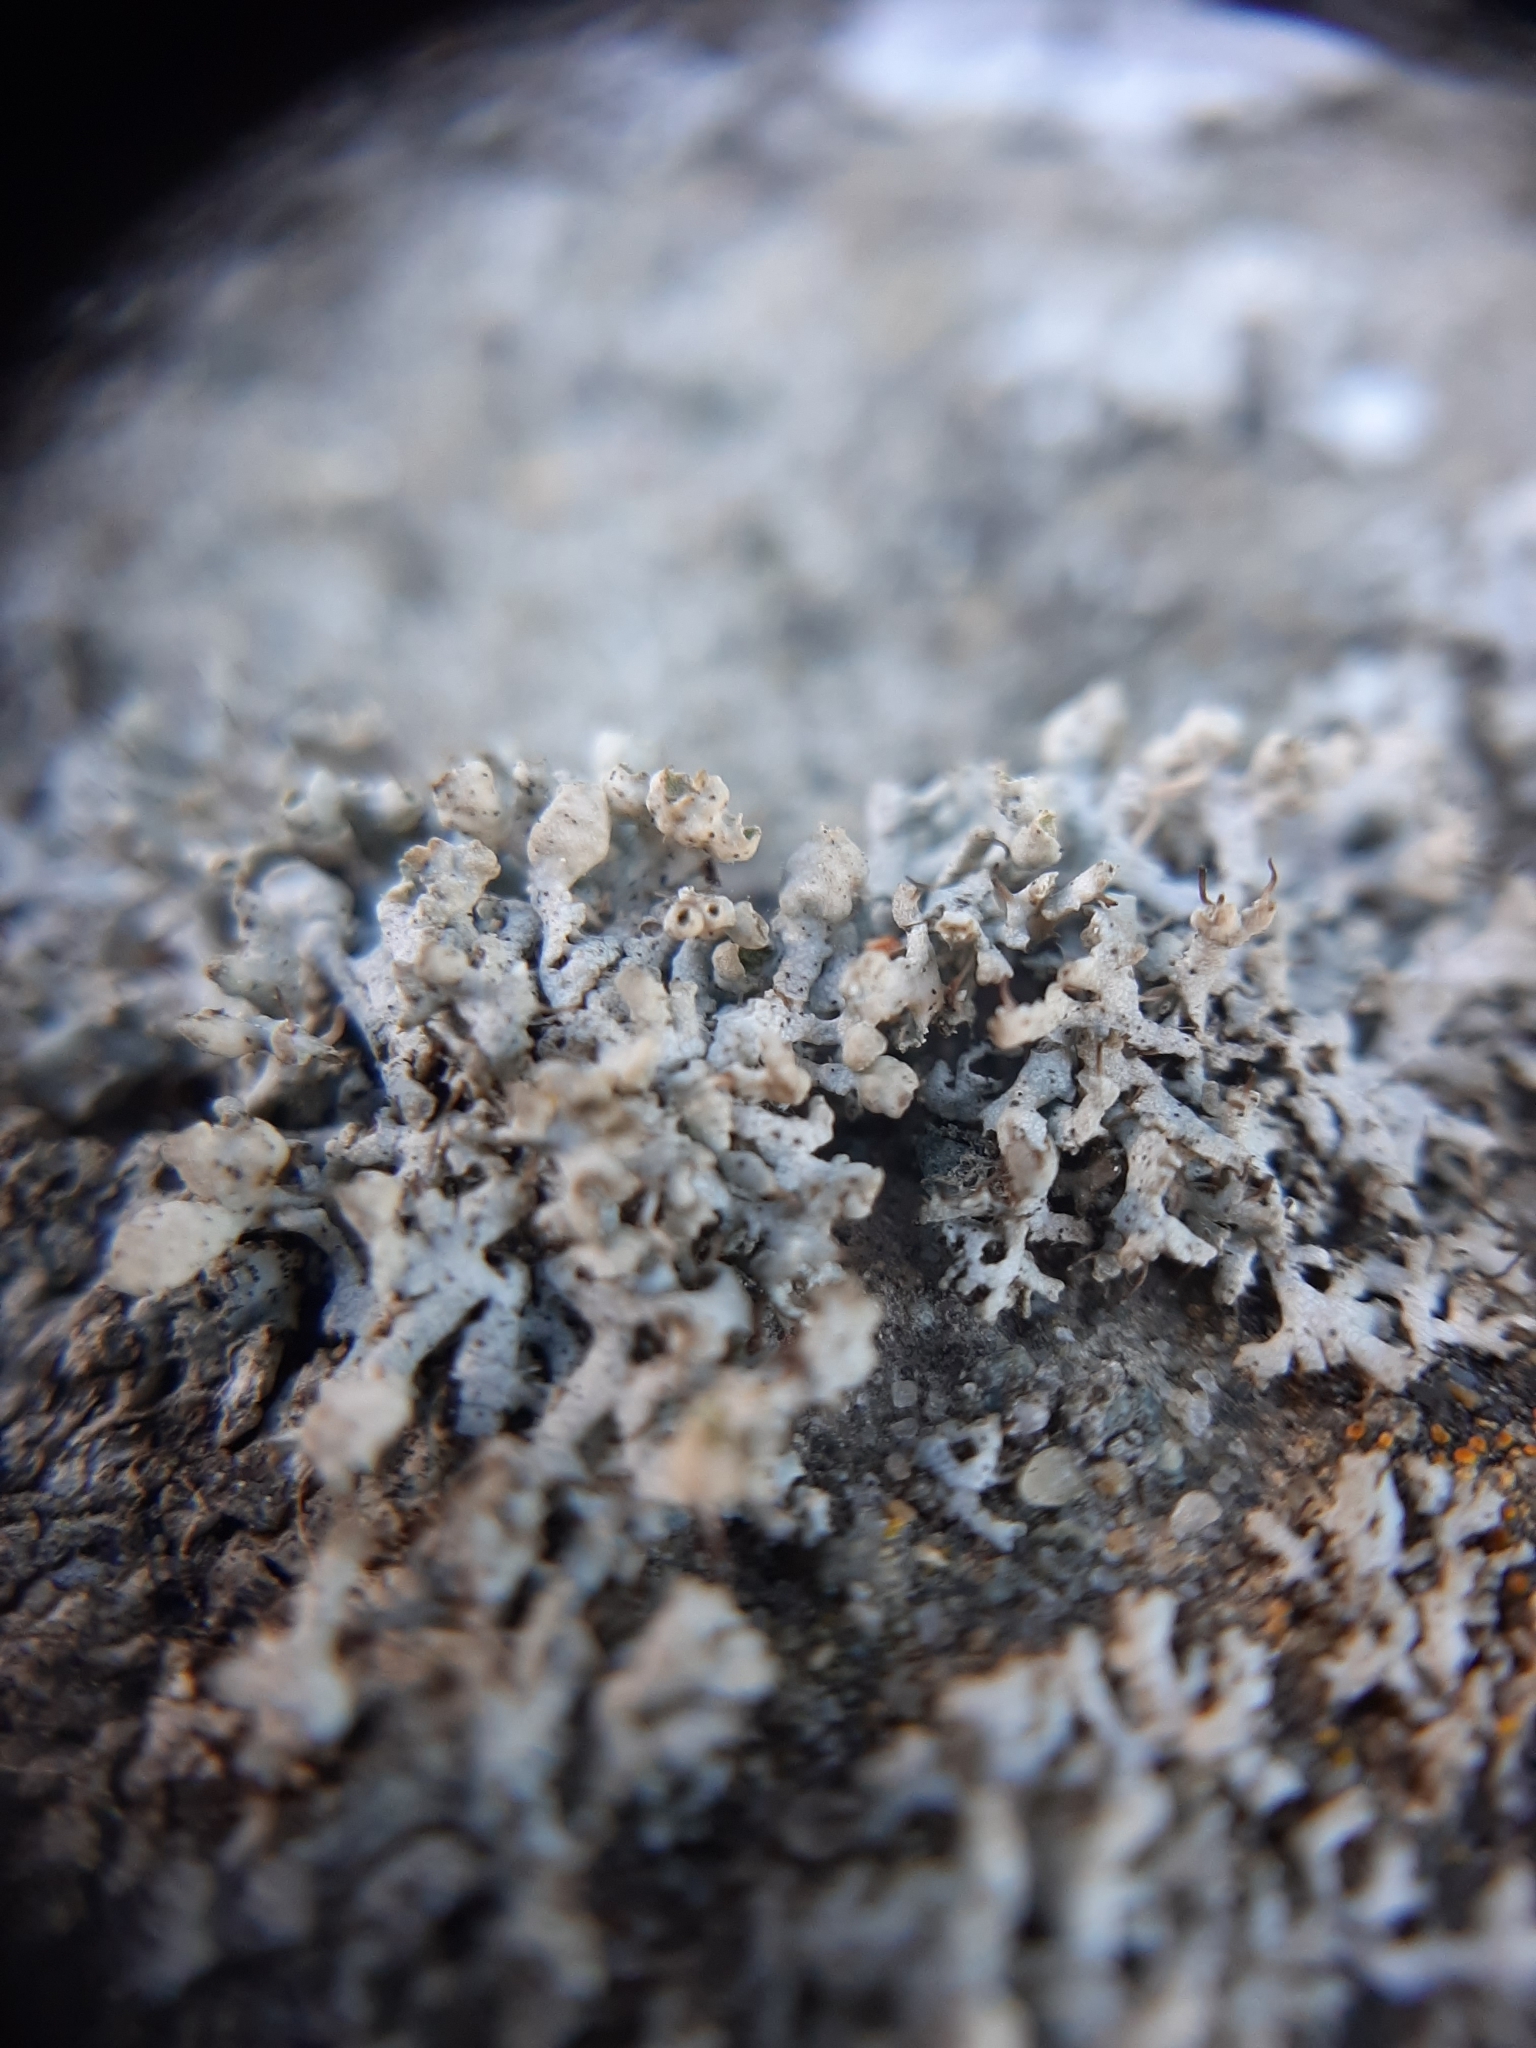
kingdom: Fungi
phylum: Ascomycota
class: Lecanoromycetes
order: Caliciales
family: Physciaceae
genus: Physcia
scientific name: Physcia adscendens
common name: Hooded rosette lichen
